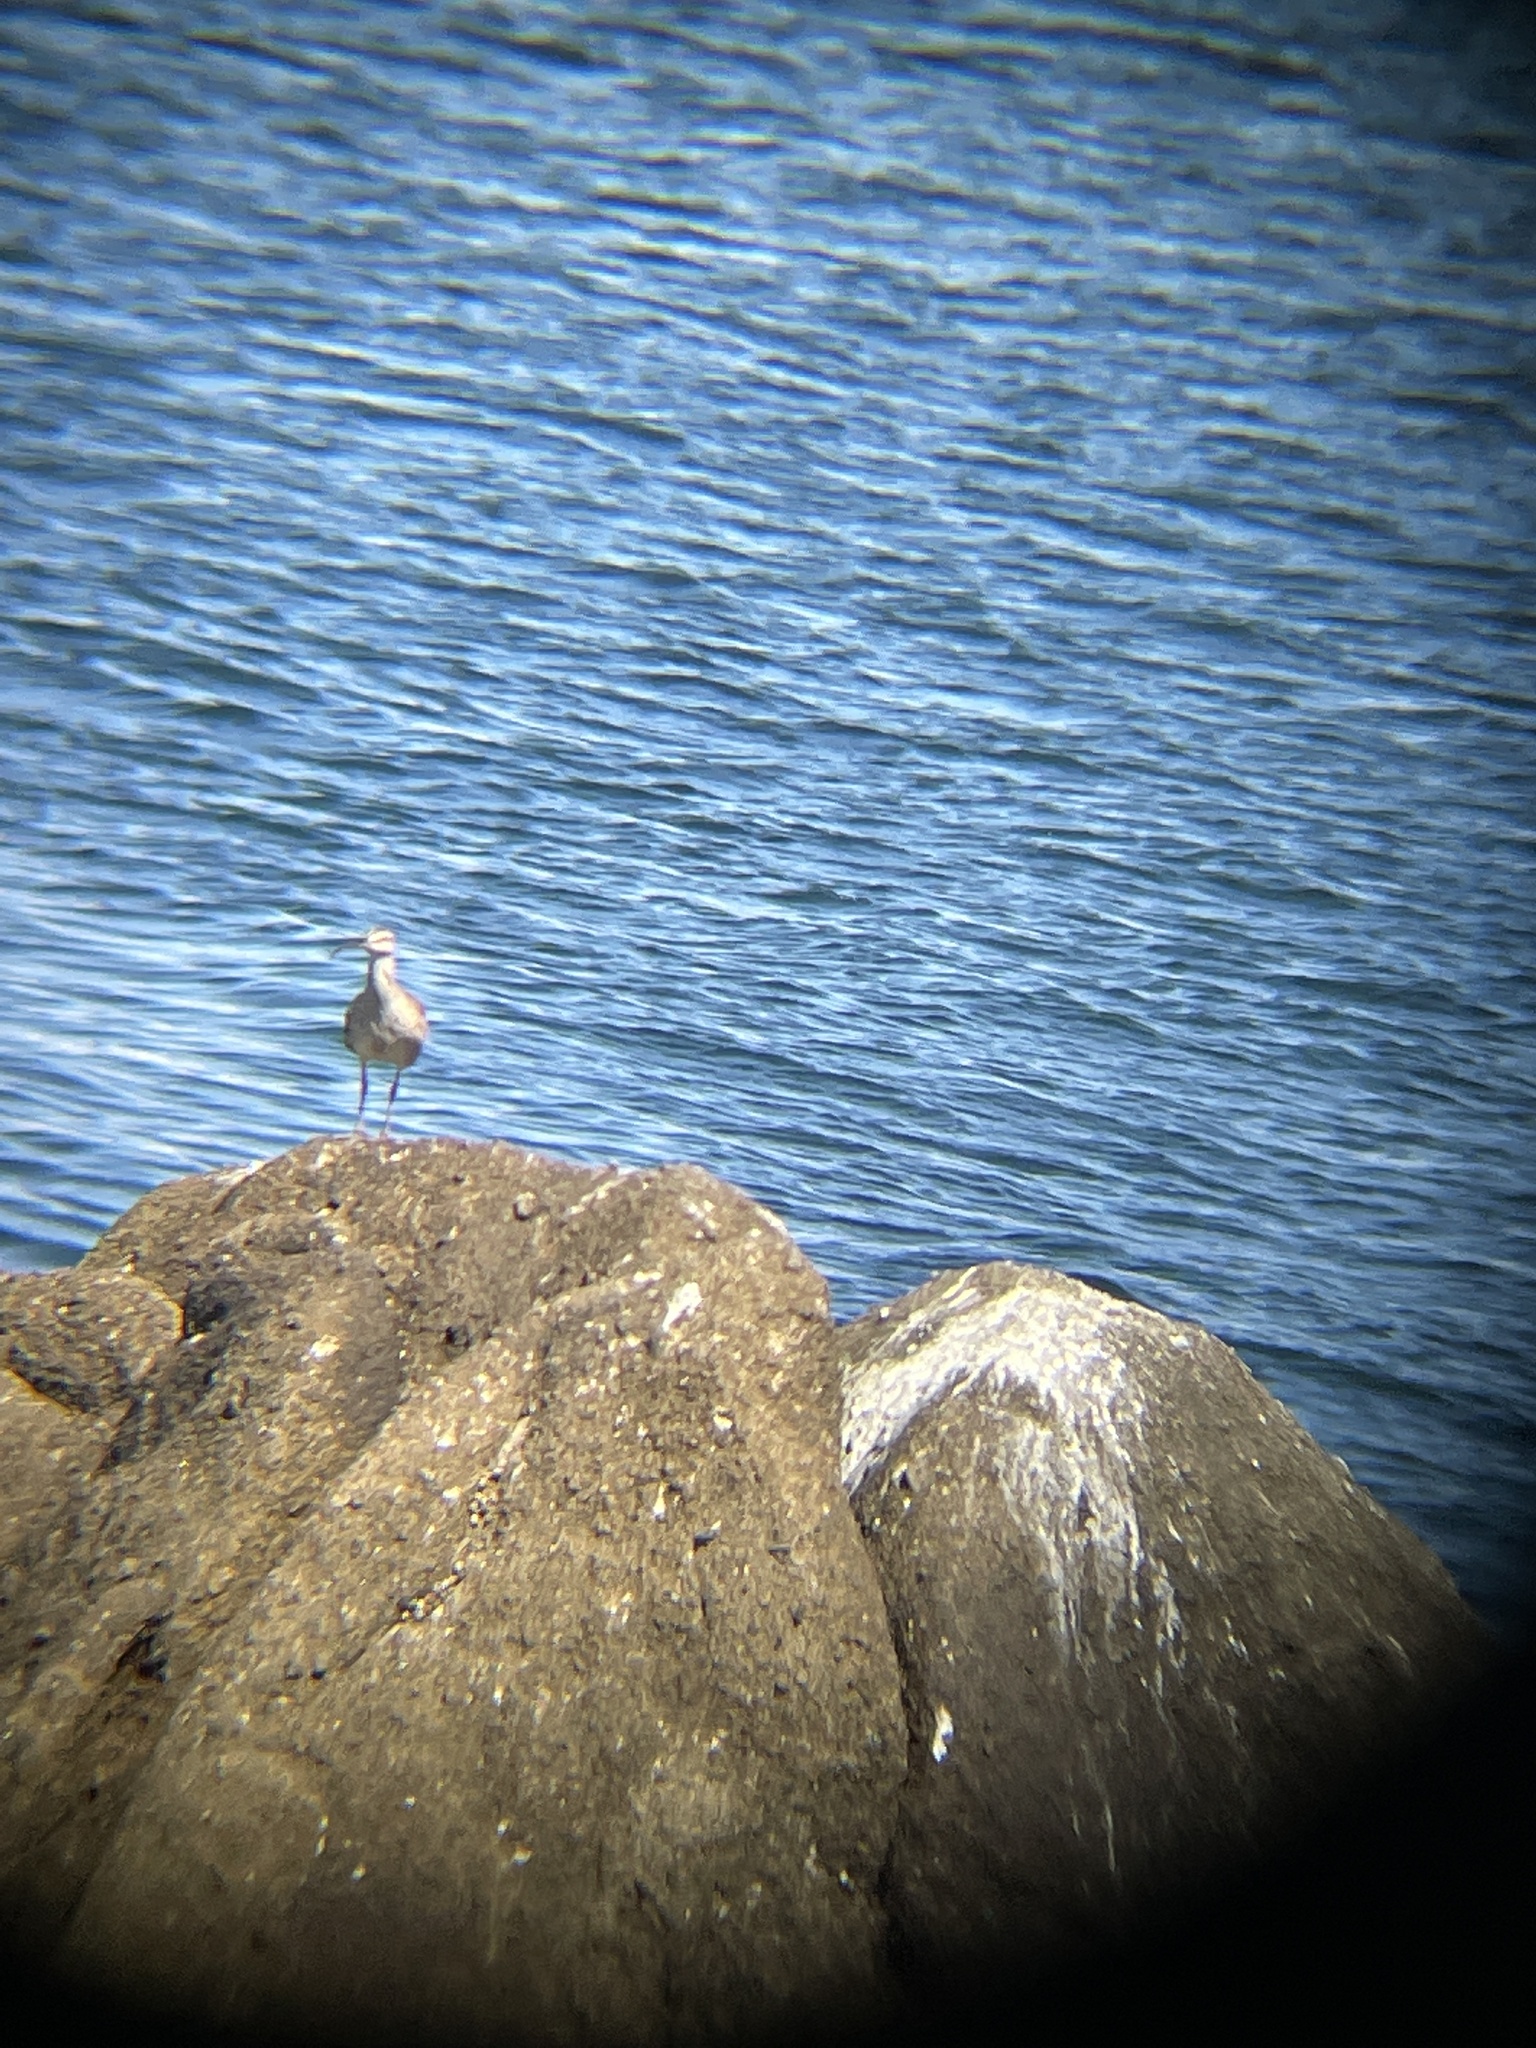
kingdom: Animalia
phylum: Chordata
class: Aves
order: Charadriiformes
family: Scolopacidae
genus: Numenius
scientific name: Numenius phaeopus
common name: Whimbrel
